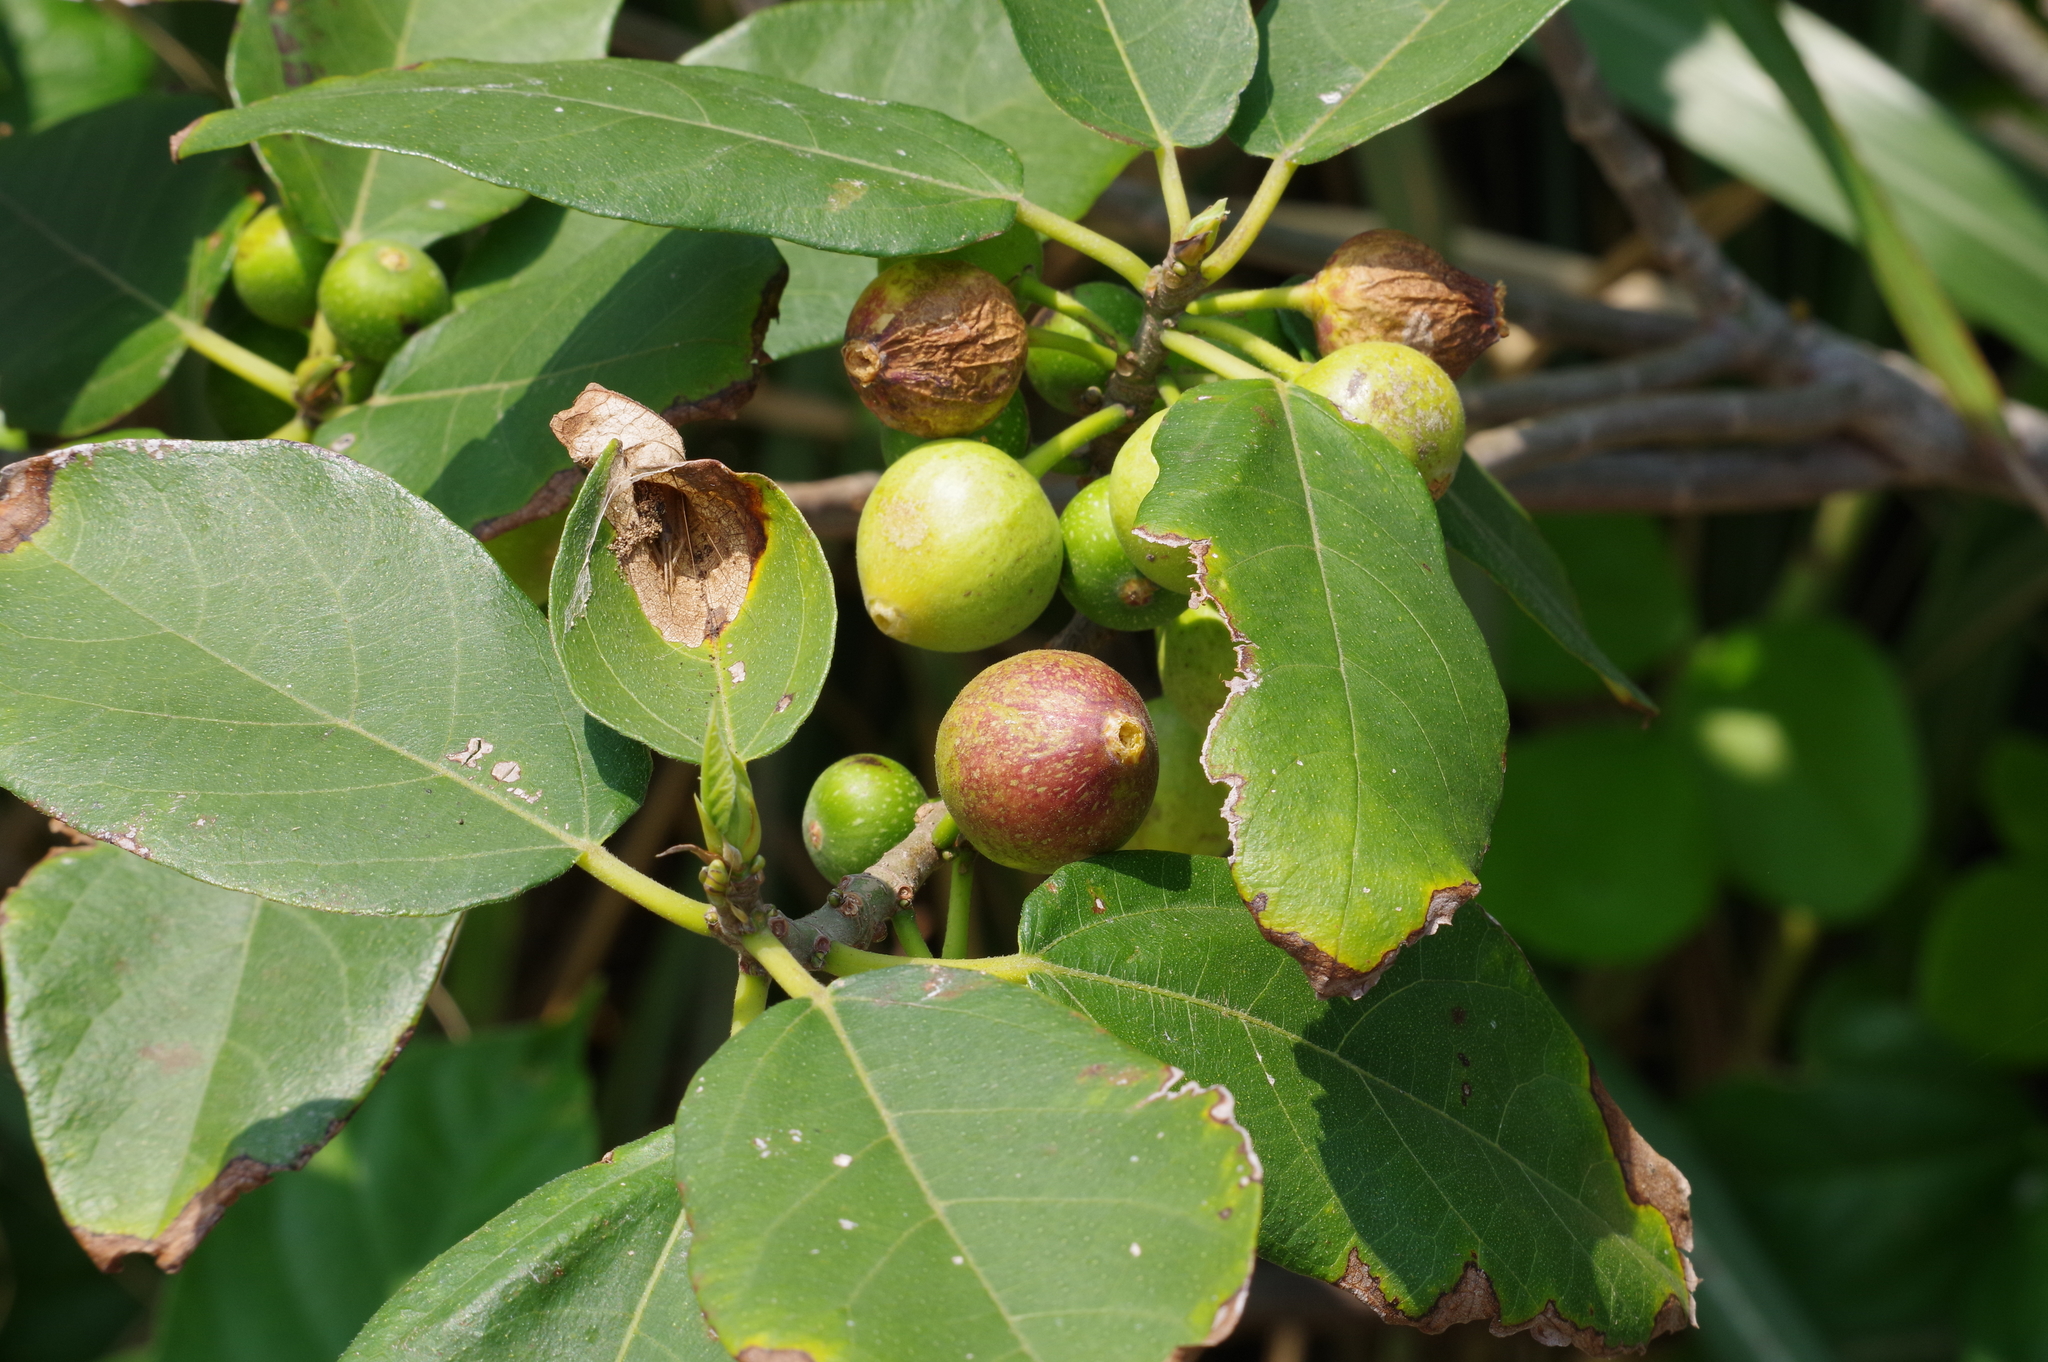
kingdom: Plantae
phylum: Tracheophyta
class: Magnoliopsida
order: Rosales
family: Moraceae
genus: Ficus
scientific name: Ficus erecta
